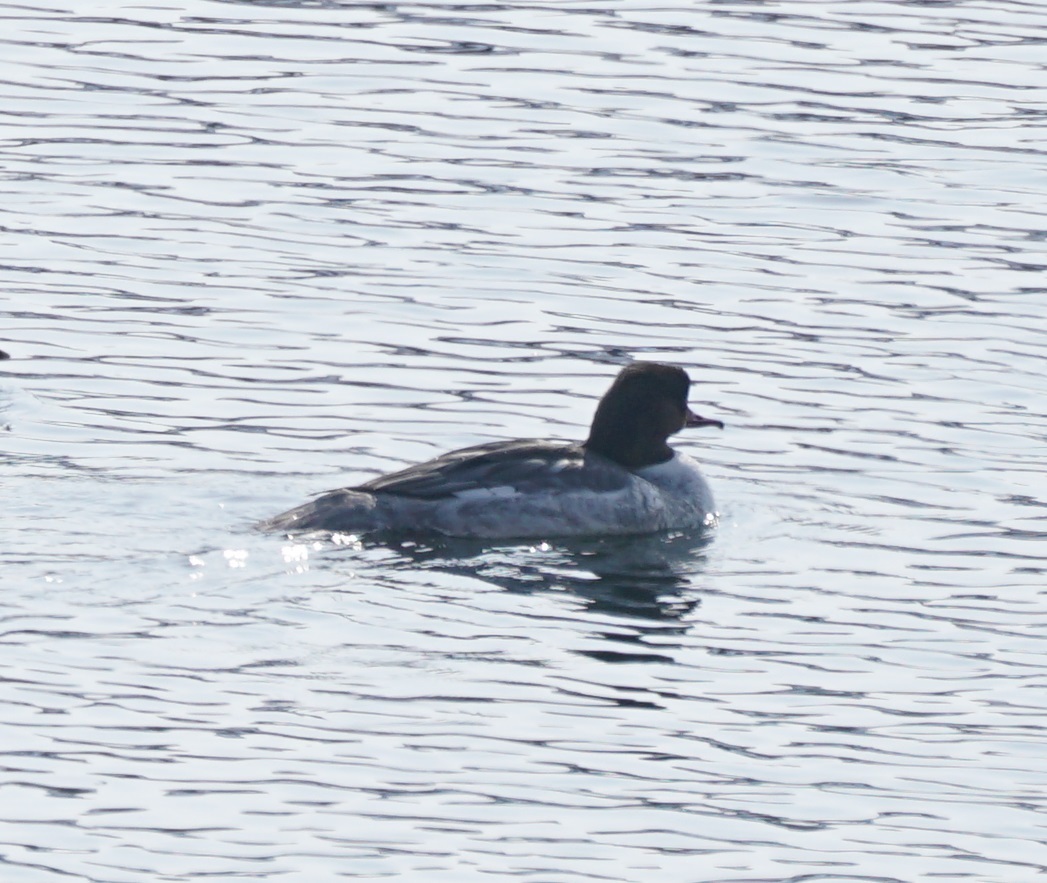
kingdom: Animalia
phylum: Chordata
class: Aves
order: Anseriformes
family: Anatidae
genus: Mergus
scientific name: Mergus merganser
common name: Common merganser
